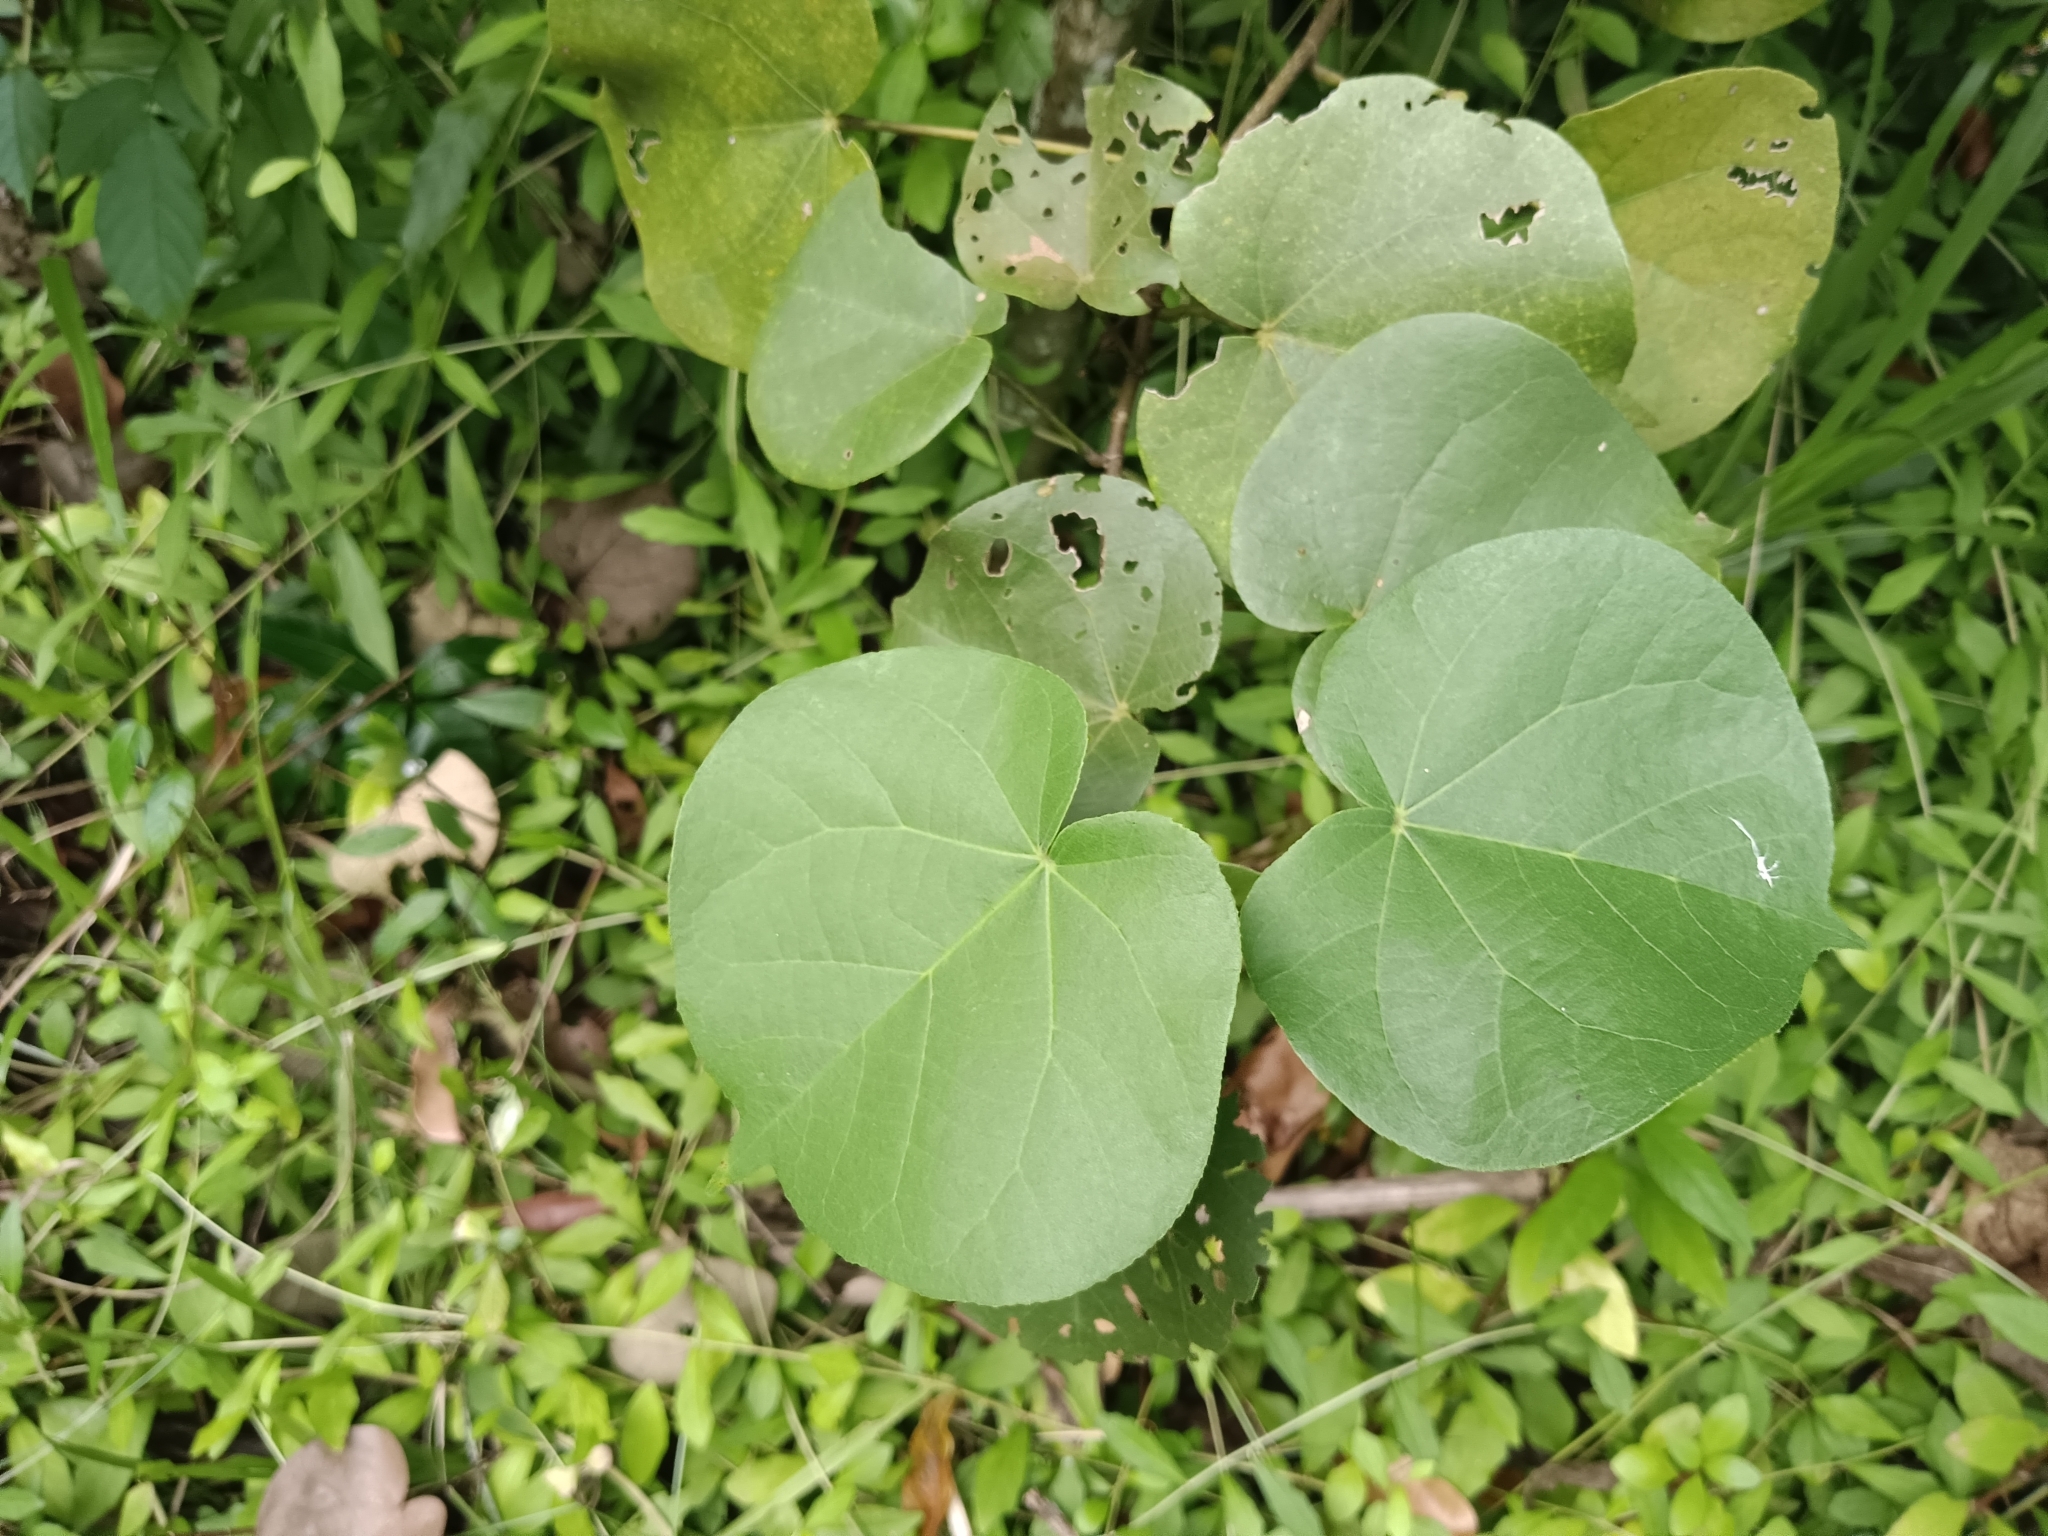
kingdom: Plantae
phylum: Tracheophyta
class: Magnoliopsida
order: Malvales
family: Malvaceae
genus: Talipariti
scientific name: Talipariti tiliaceum
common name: Sea hibiscus
